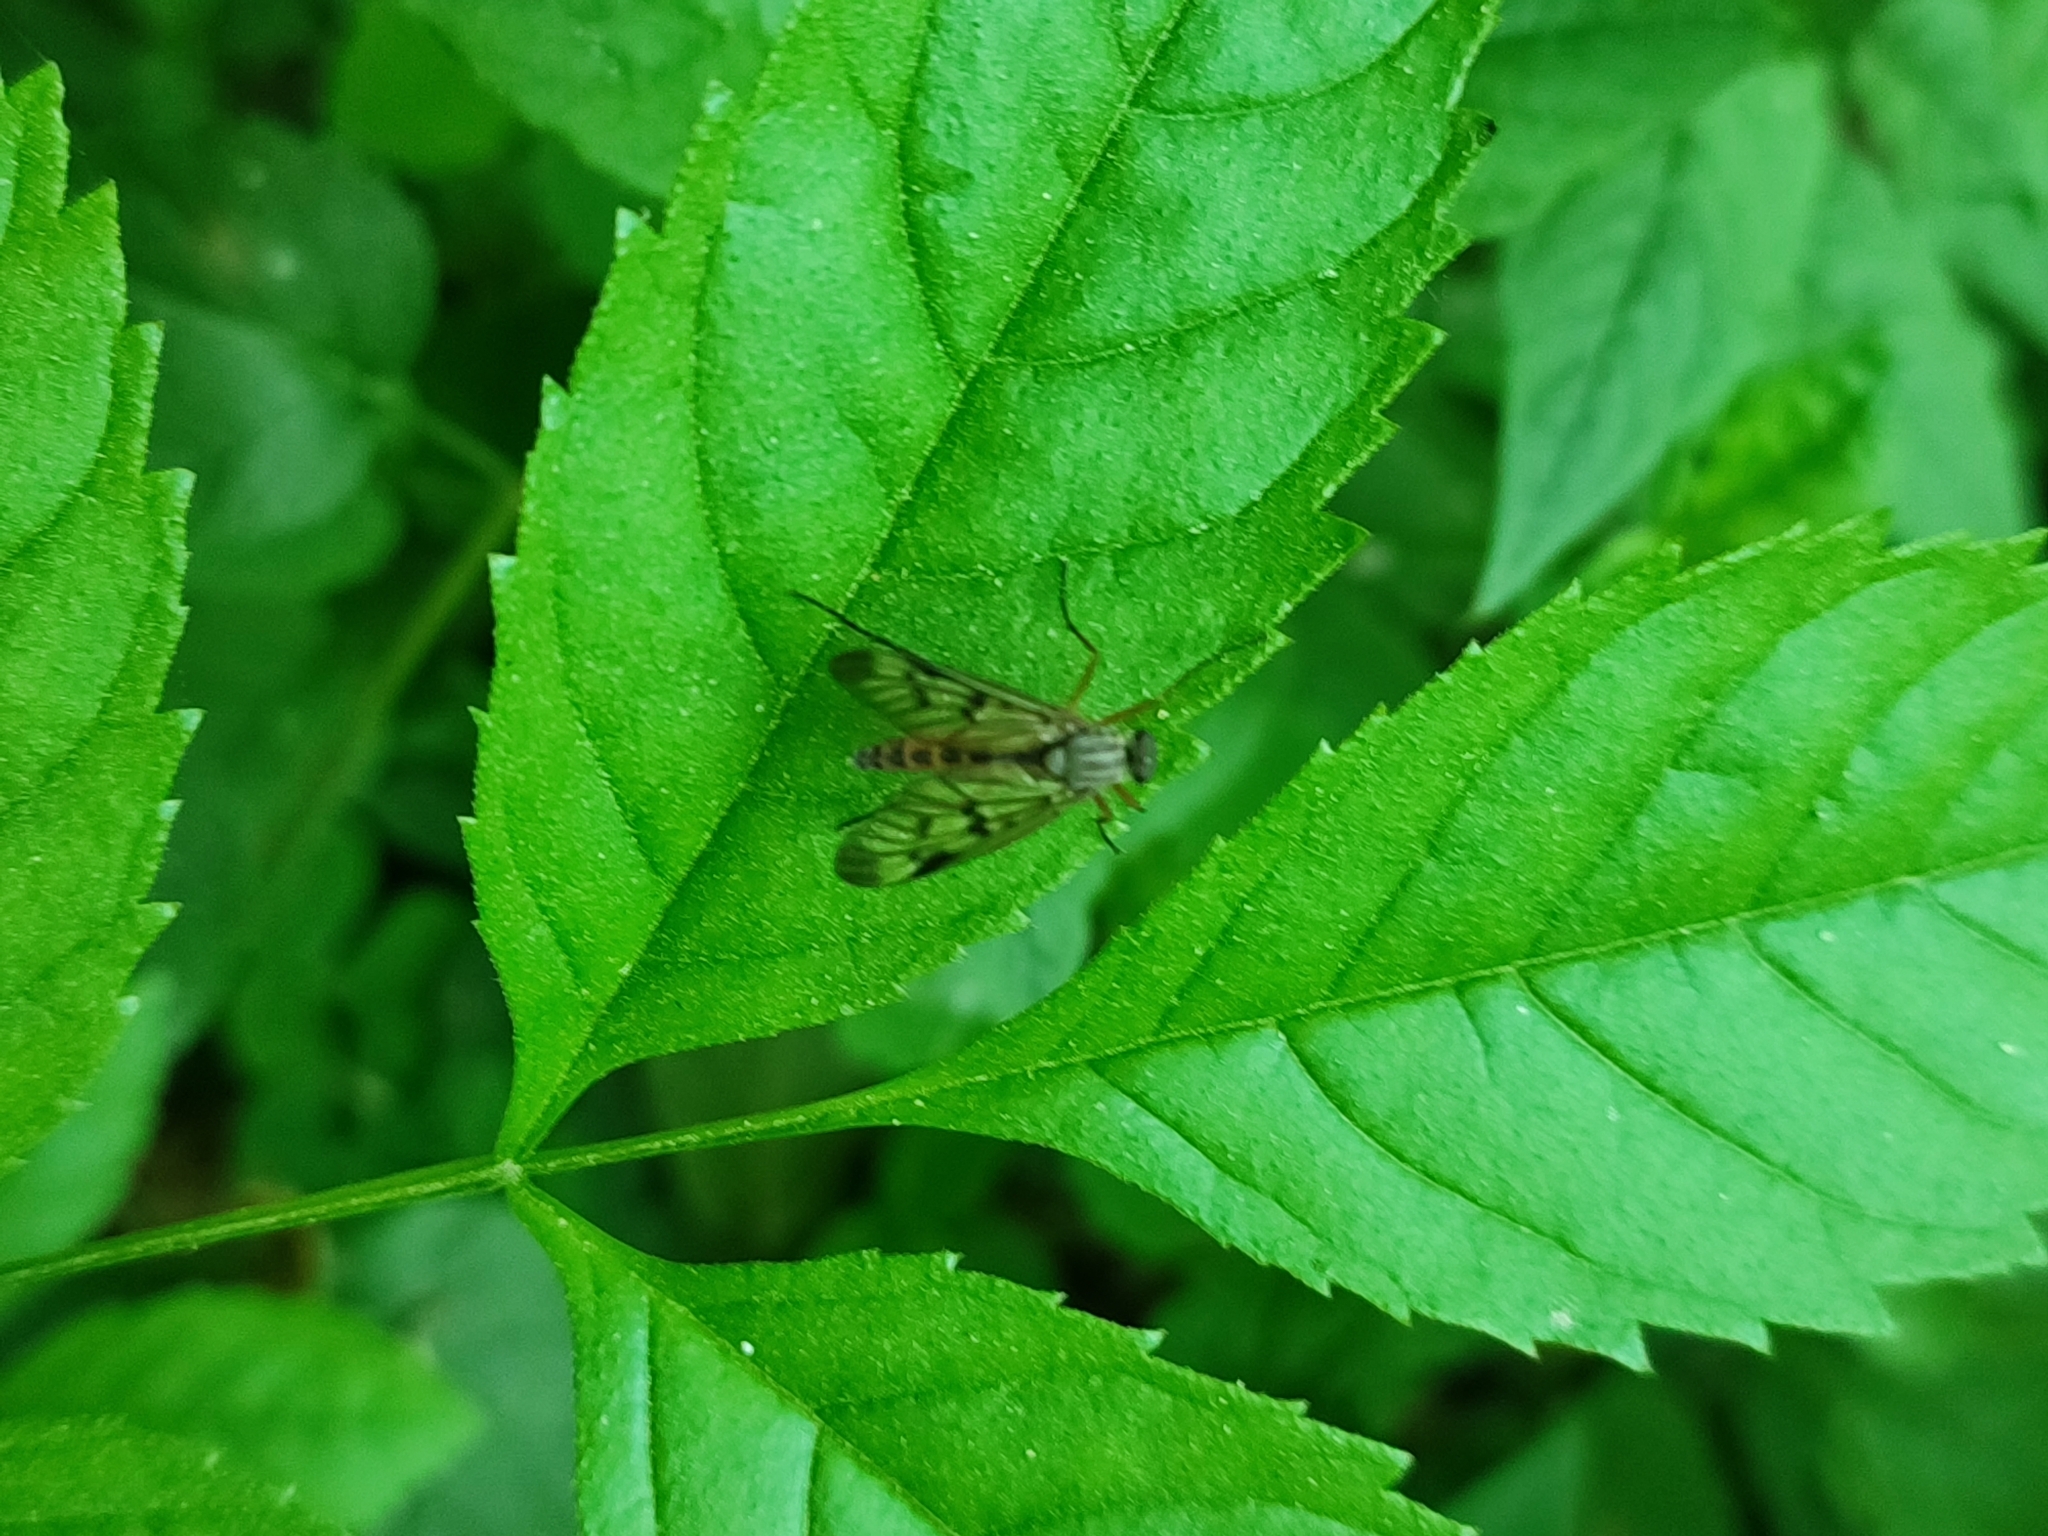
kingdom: Animalia
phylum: Arthropoda
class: Insecta
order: Diptera
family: Rhagionidae
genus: Rhagio
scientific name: Rhagio scolopacea
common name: Downlooker snipefly
